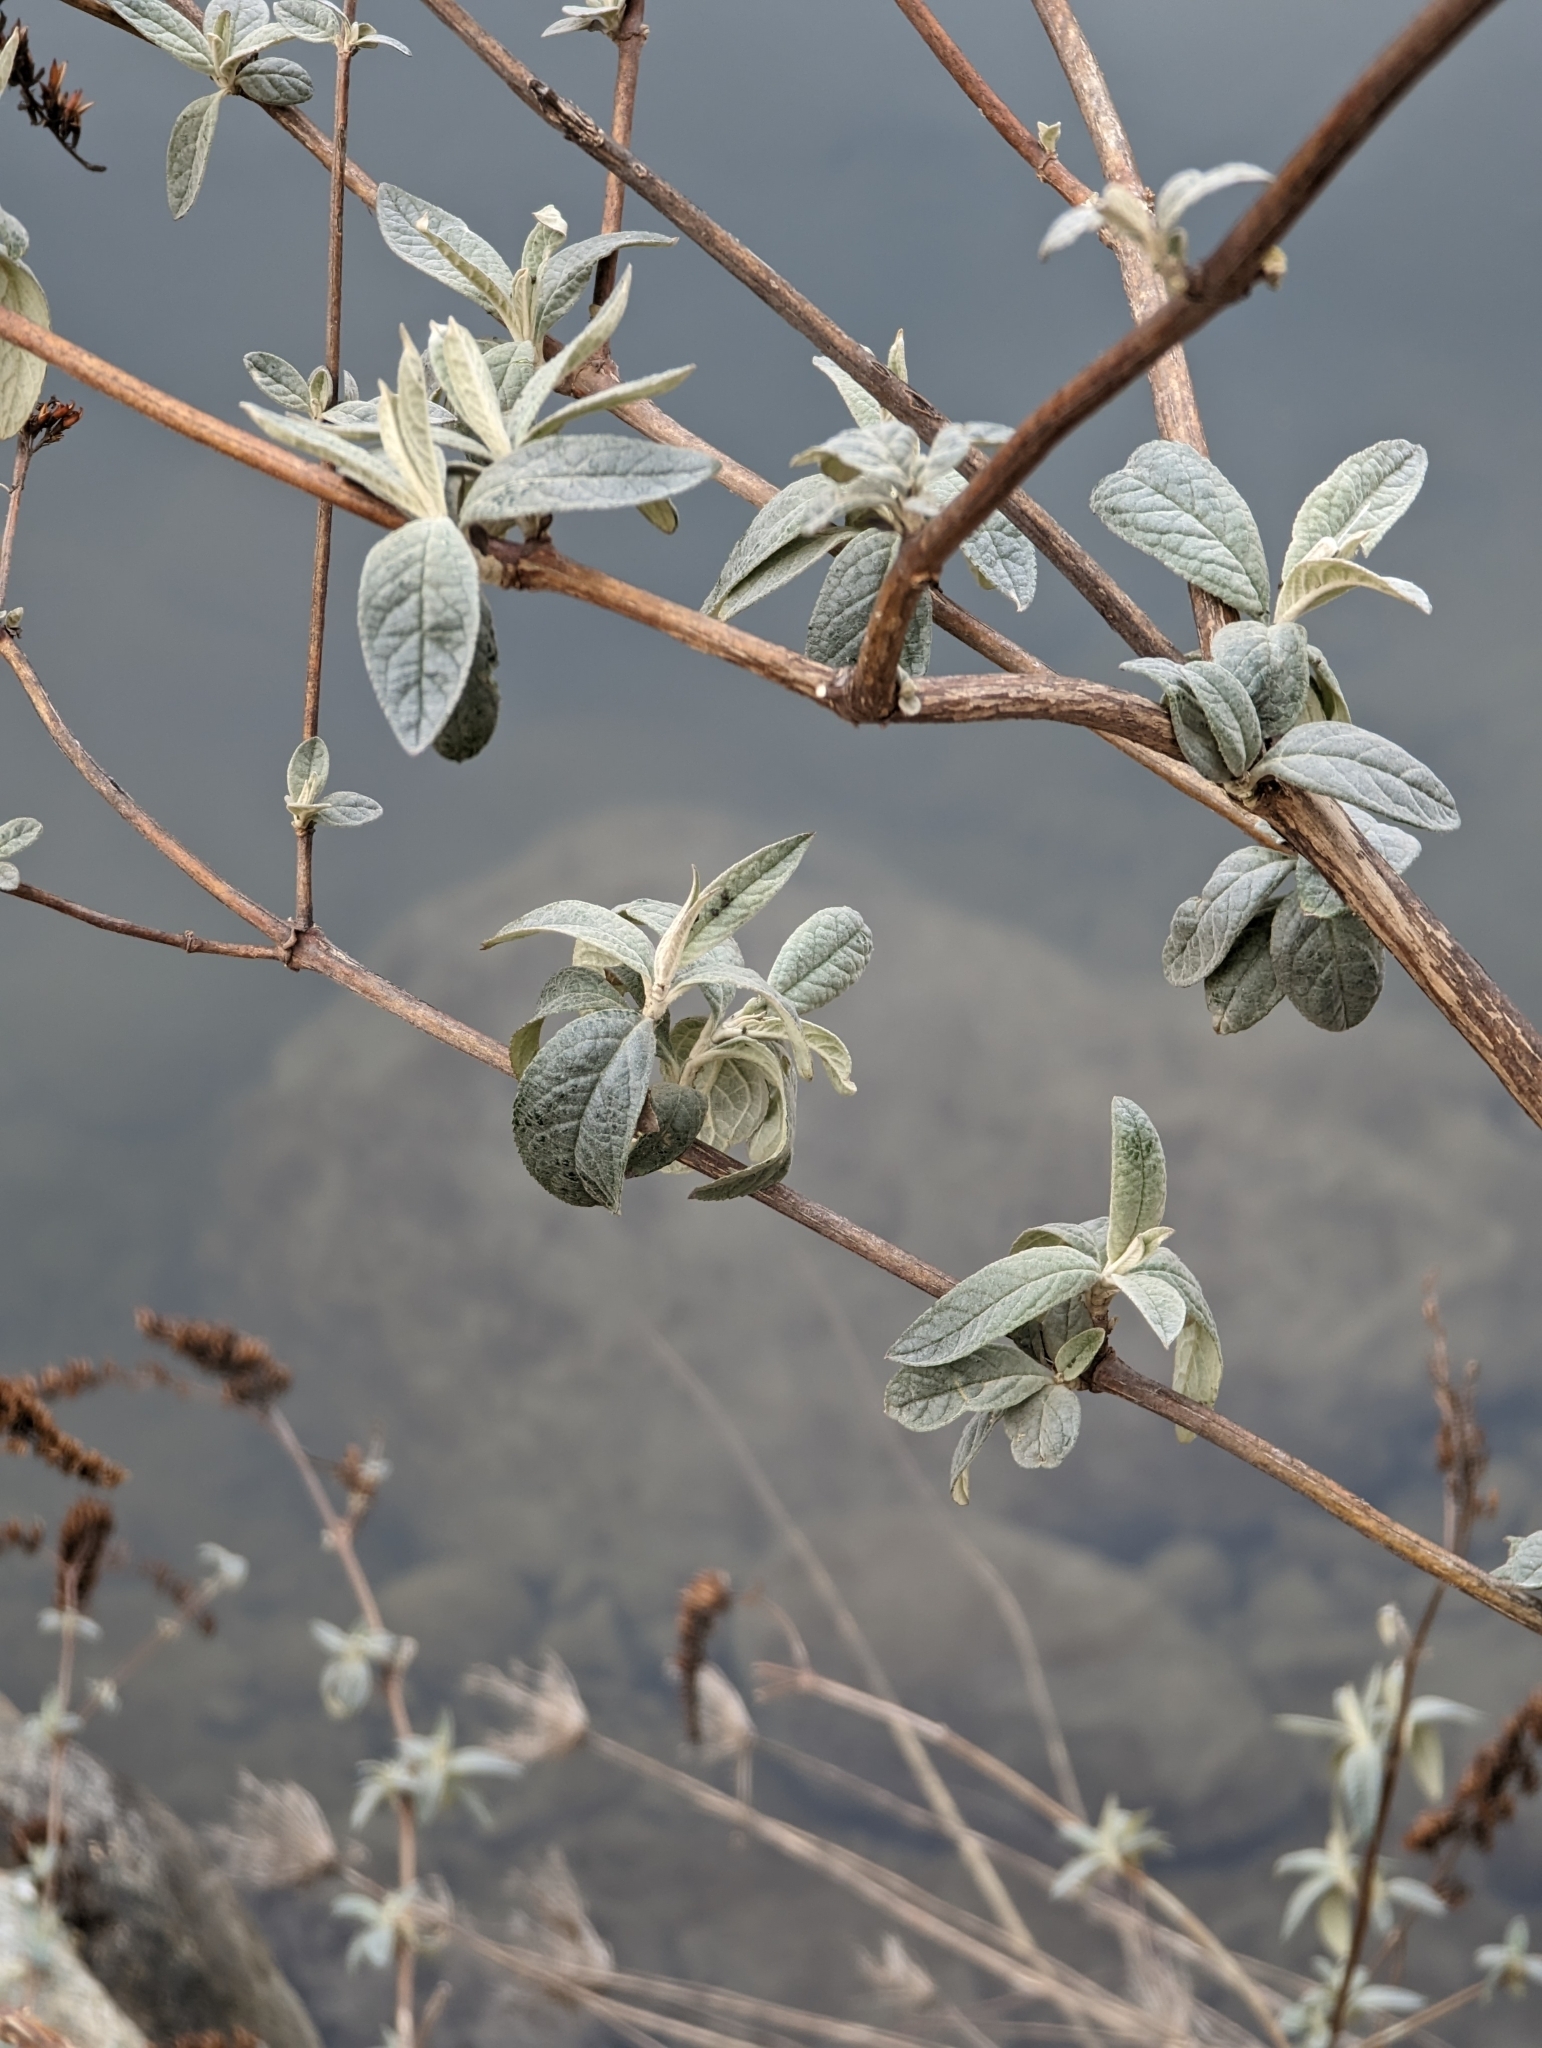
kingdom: Plantae
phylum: Tracheophyta
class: Magnoliopsida
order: Lamiales
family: Scrophulariaceae
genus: Buddleja
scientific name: Buddleja davidii
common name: Butterfly-bush
